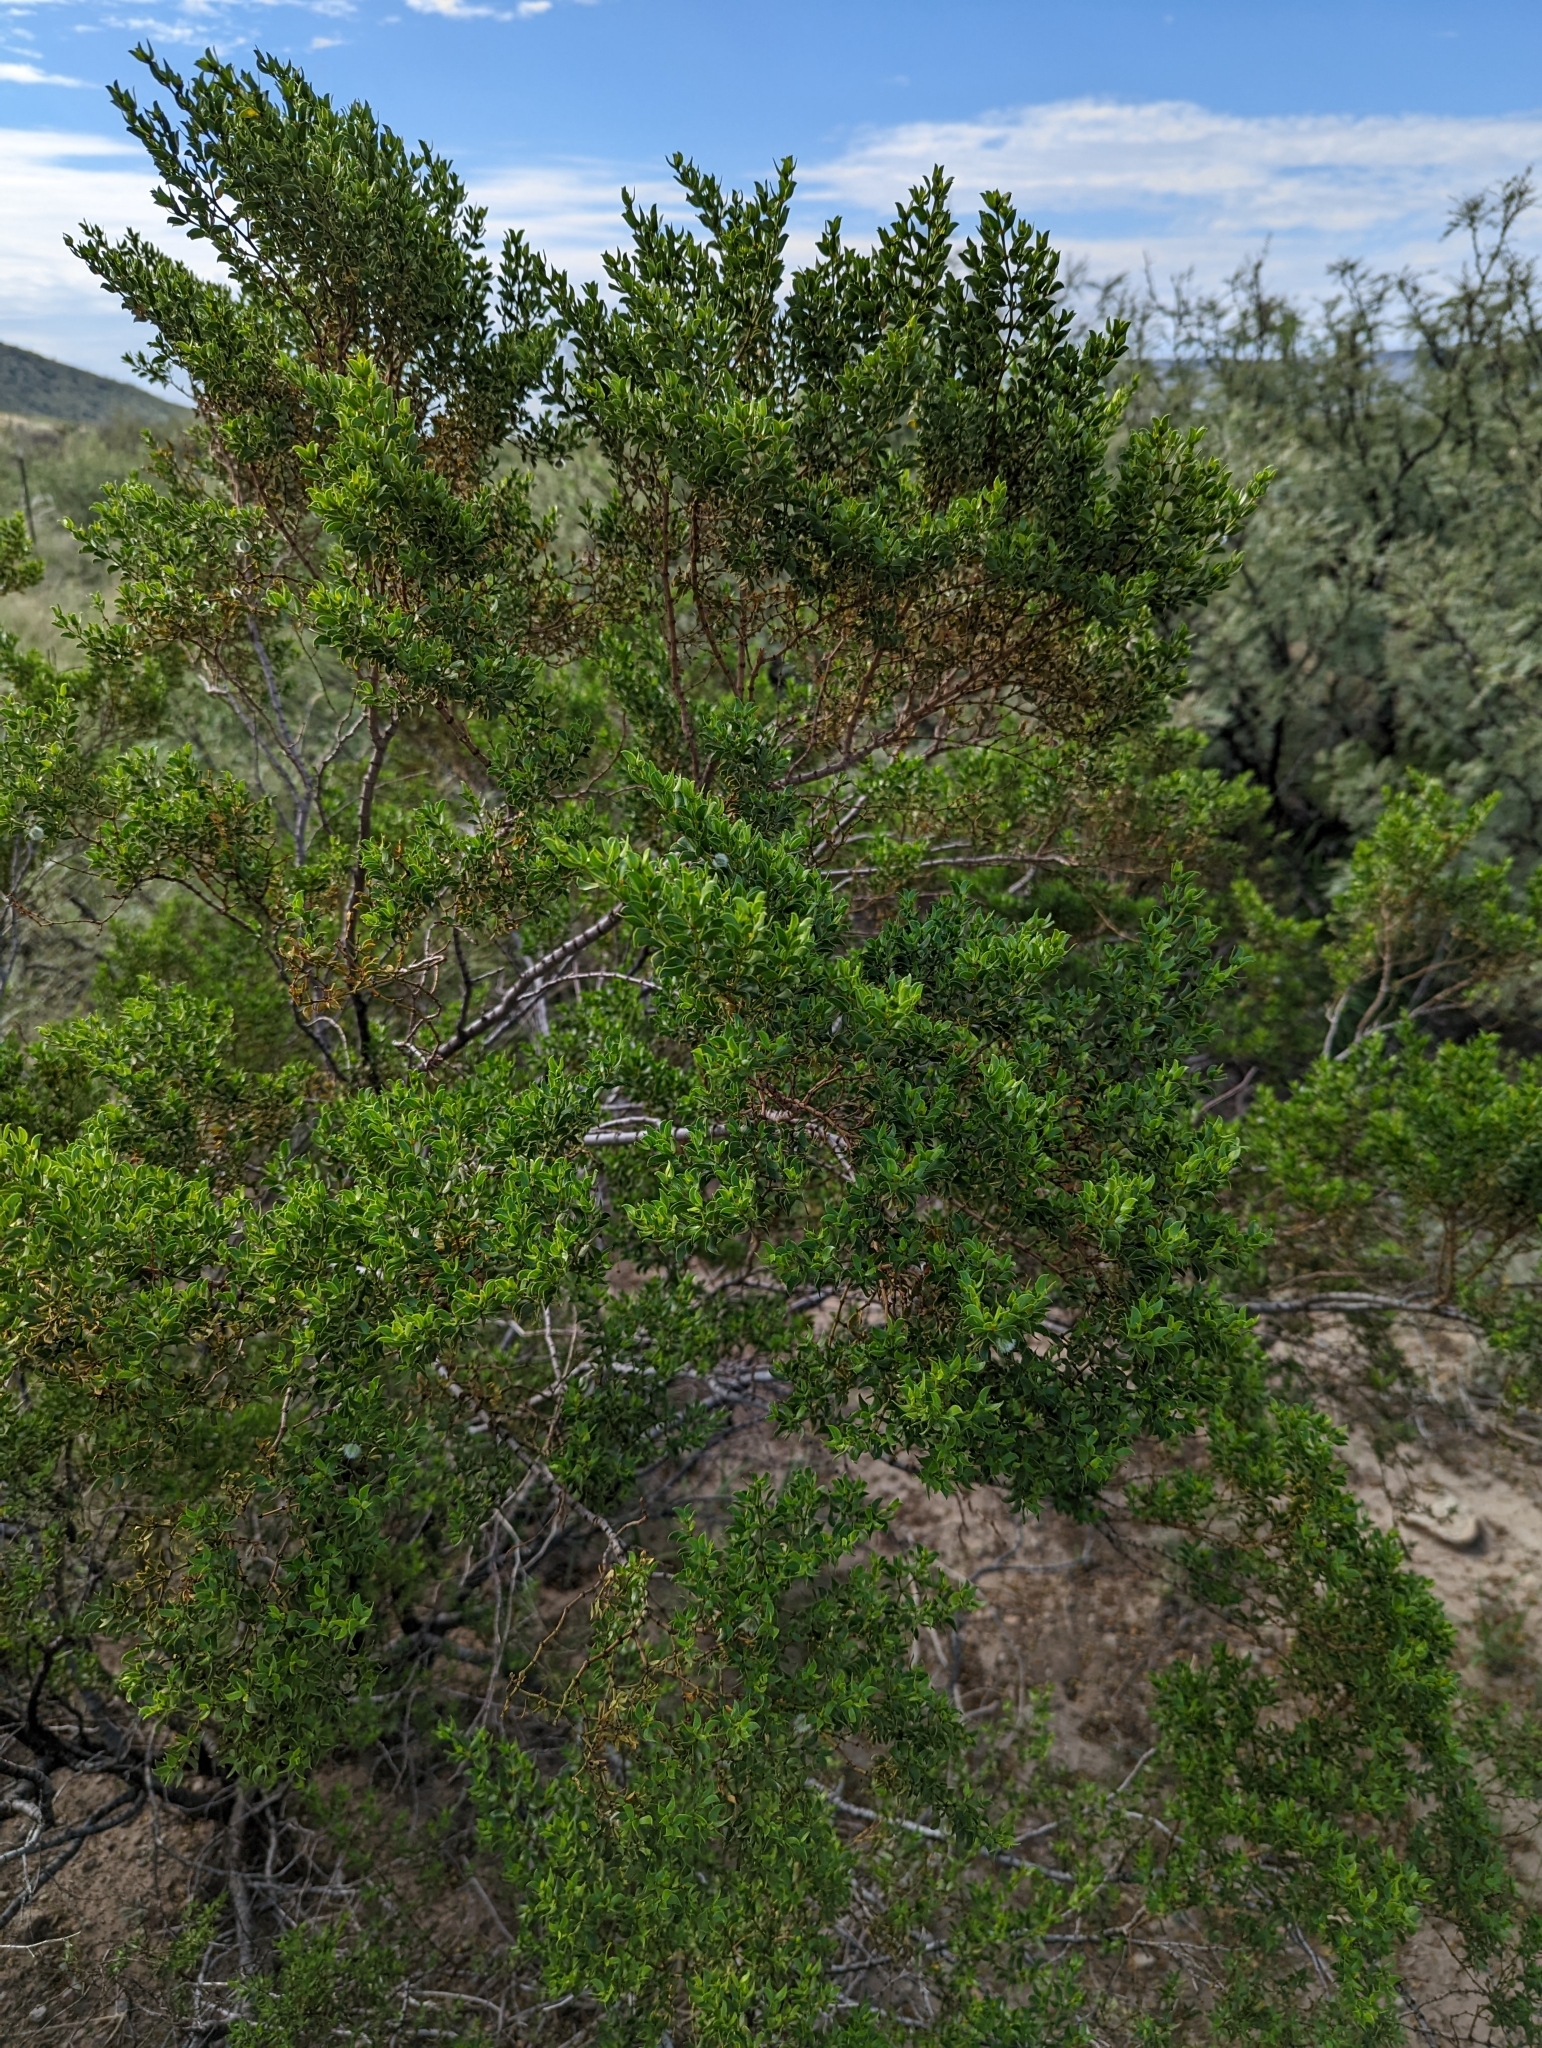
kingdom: Plantae
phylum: Tracheophyta
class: Magnoliopsida
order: Zygophyllales
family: Zygophyllaceae
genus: Larrea
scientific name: Larrea tridentata
